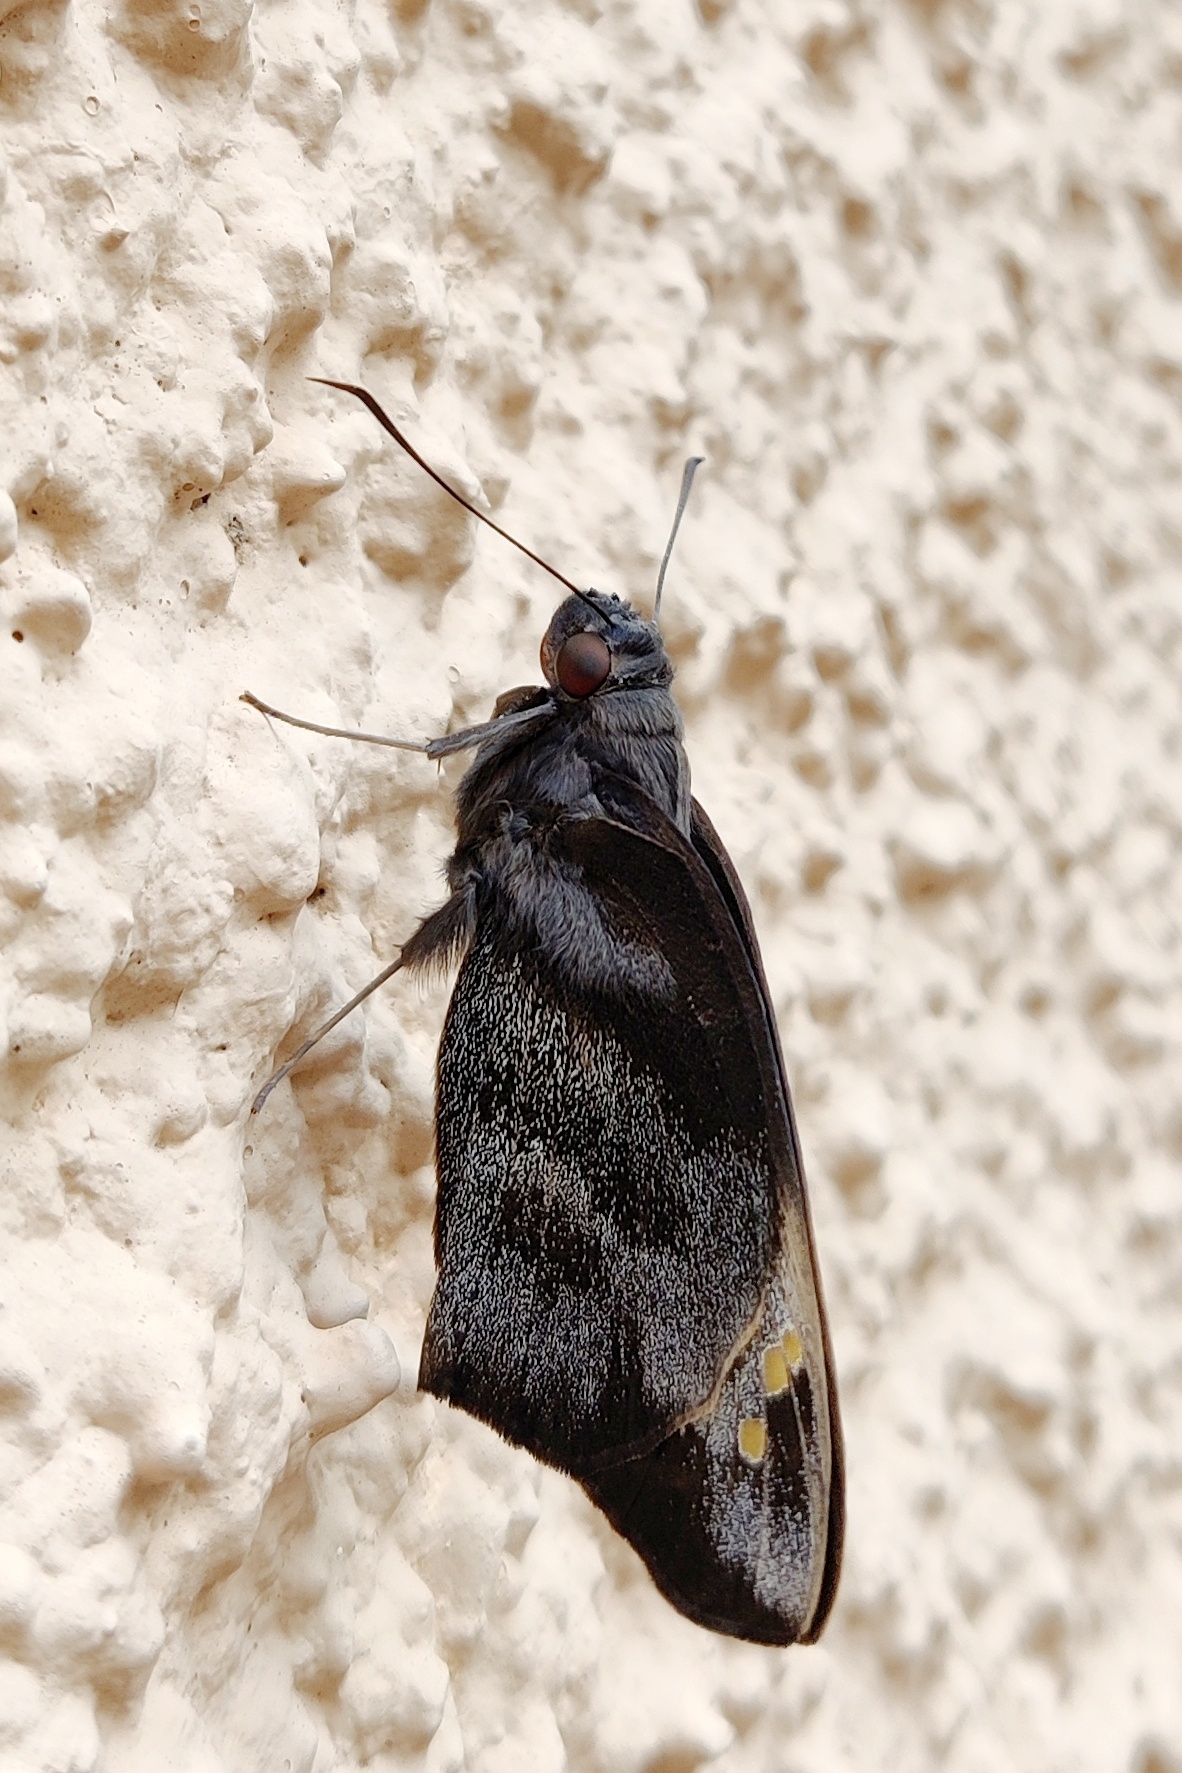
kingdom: Animalia
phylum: Arthropoda
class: Insecta
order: Lepidoptera
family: Hesperiidae
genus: Gangara
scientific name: Gangara thyrsis
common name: Giant redeye
